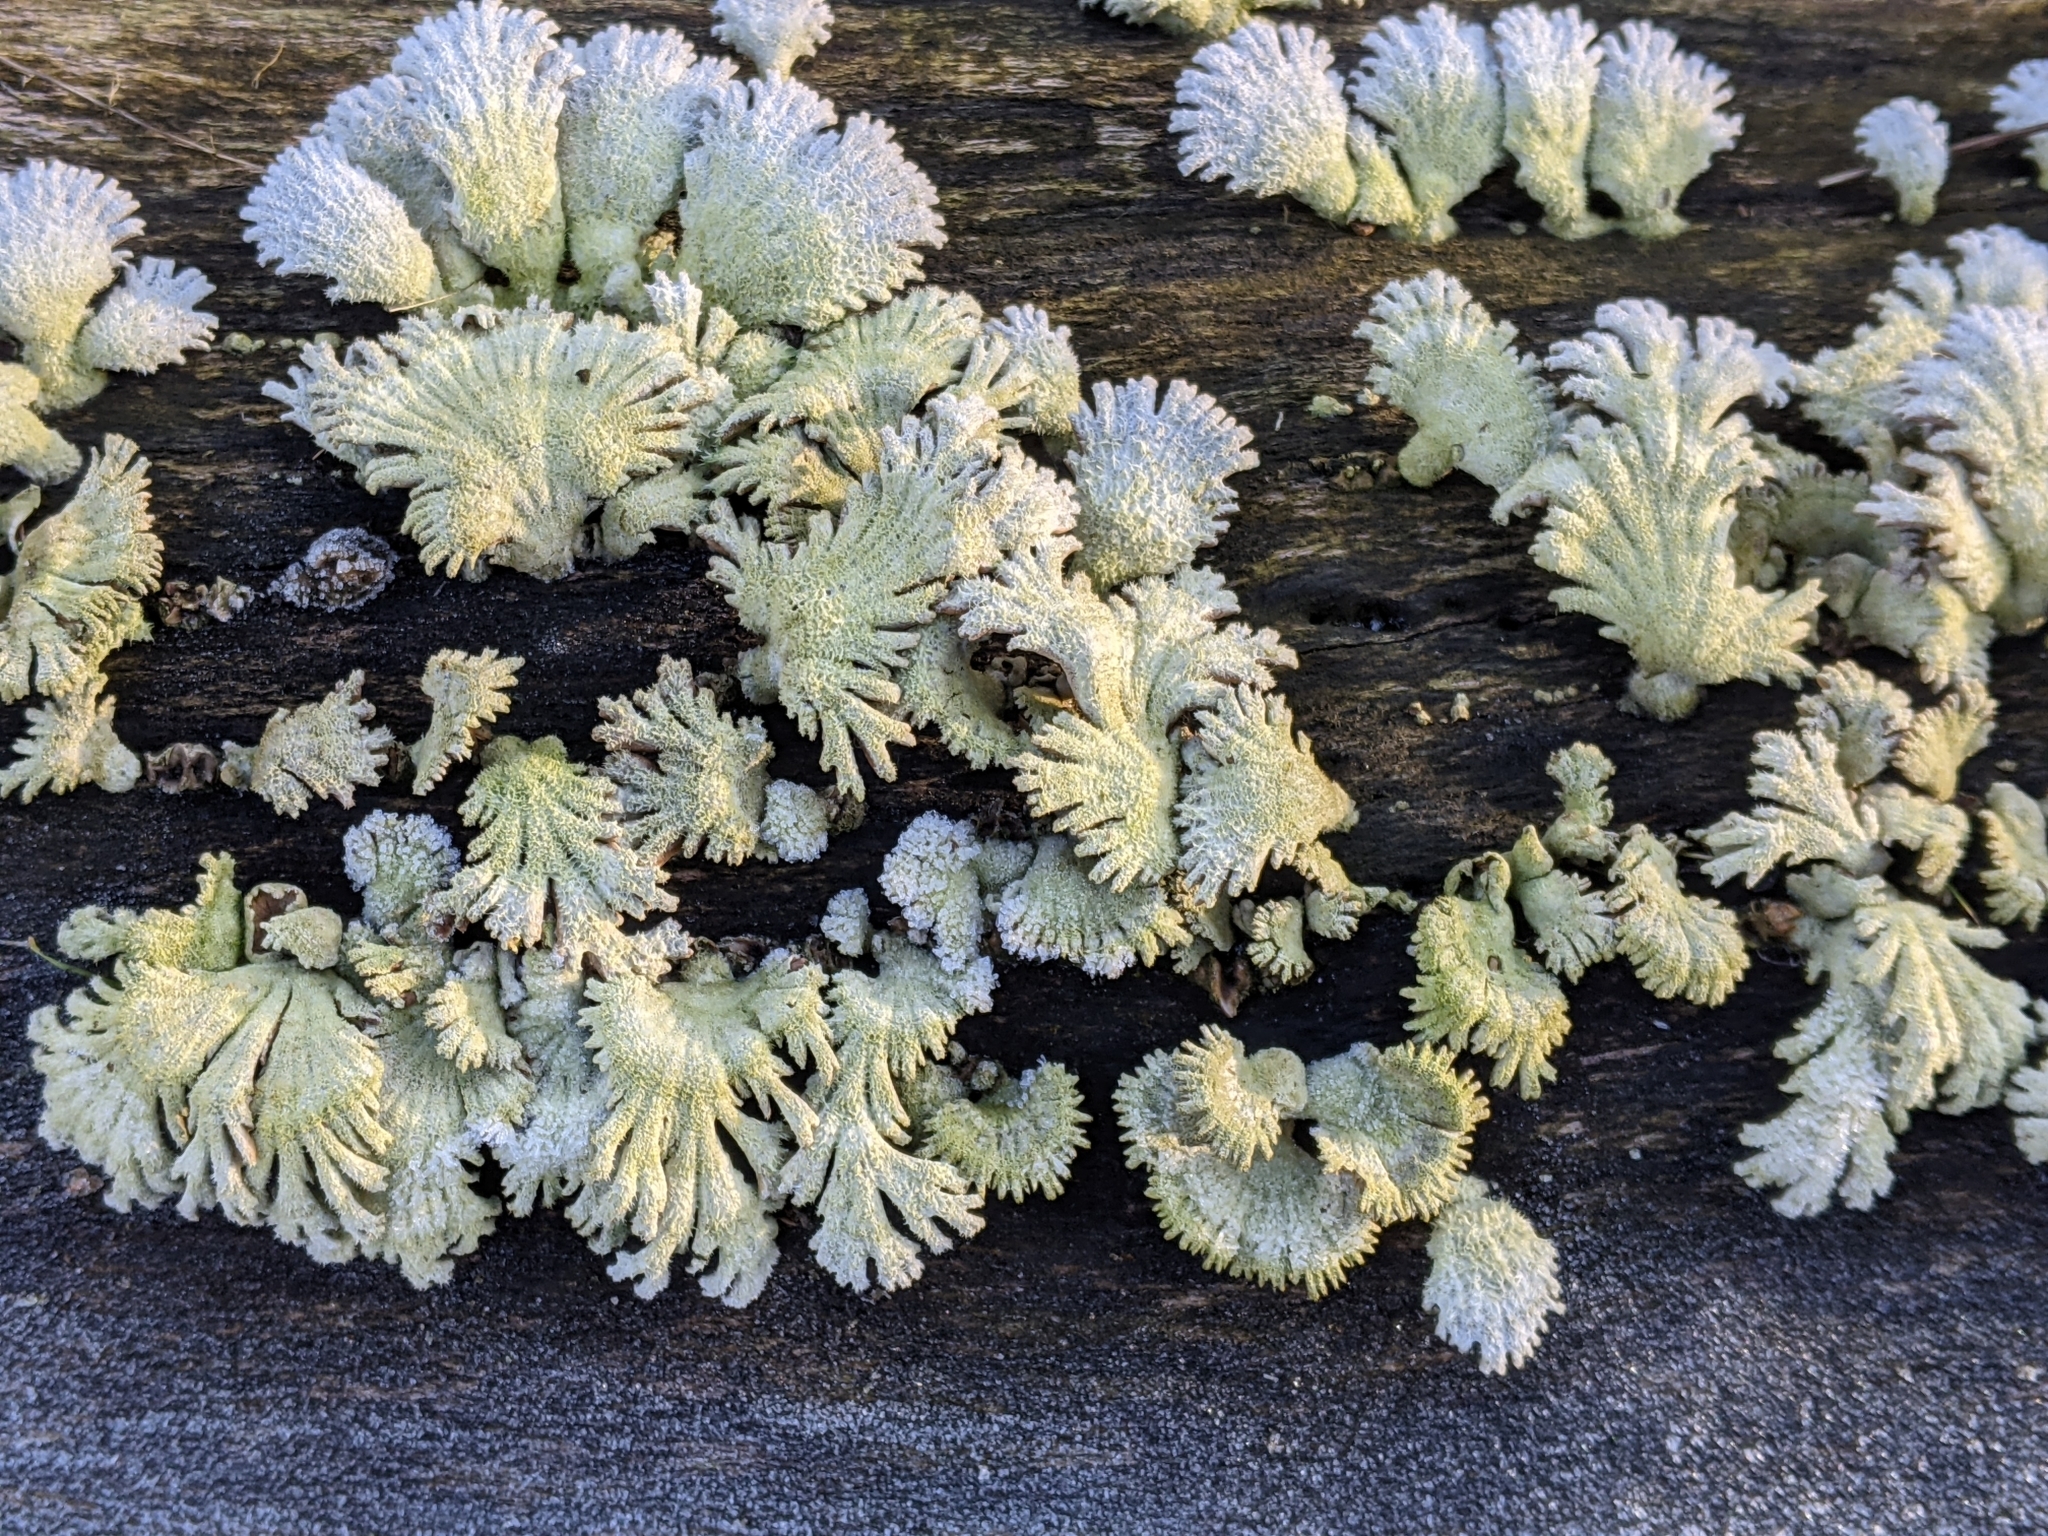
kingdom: Fungi
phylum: Basidiomycota
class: Agaricomycetes
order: Agaricales
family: Schizophyllaceae
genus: Schizophyllum
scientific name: Schizophyllum commune
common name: Common porecrust
